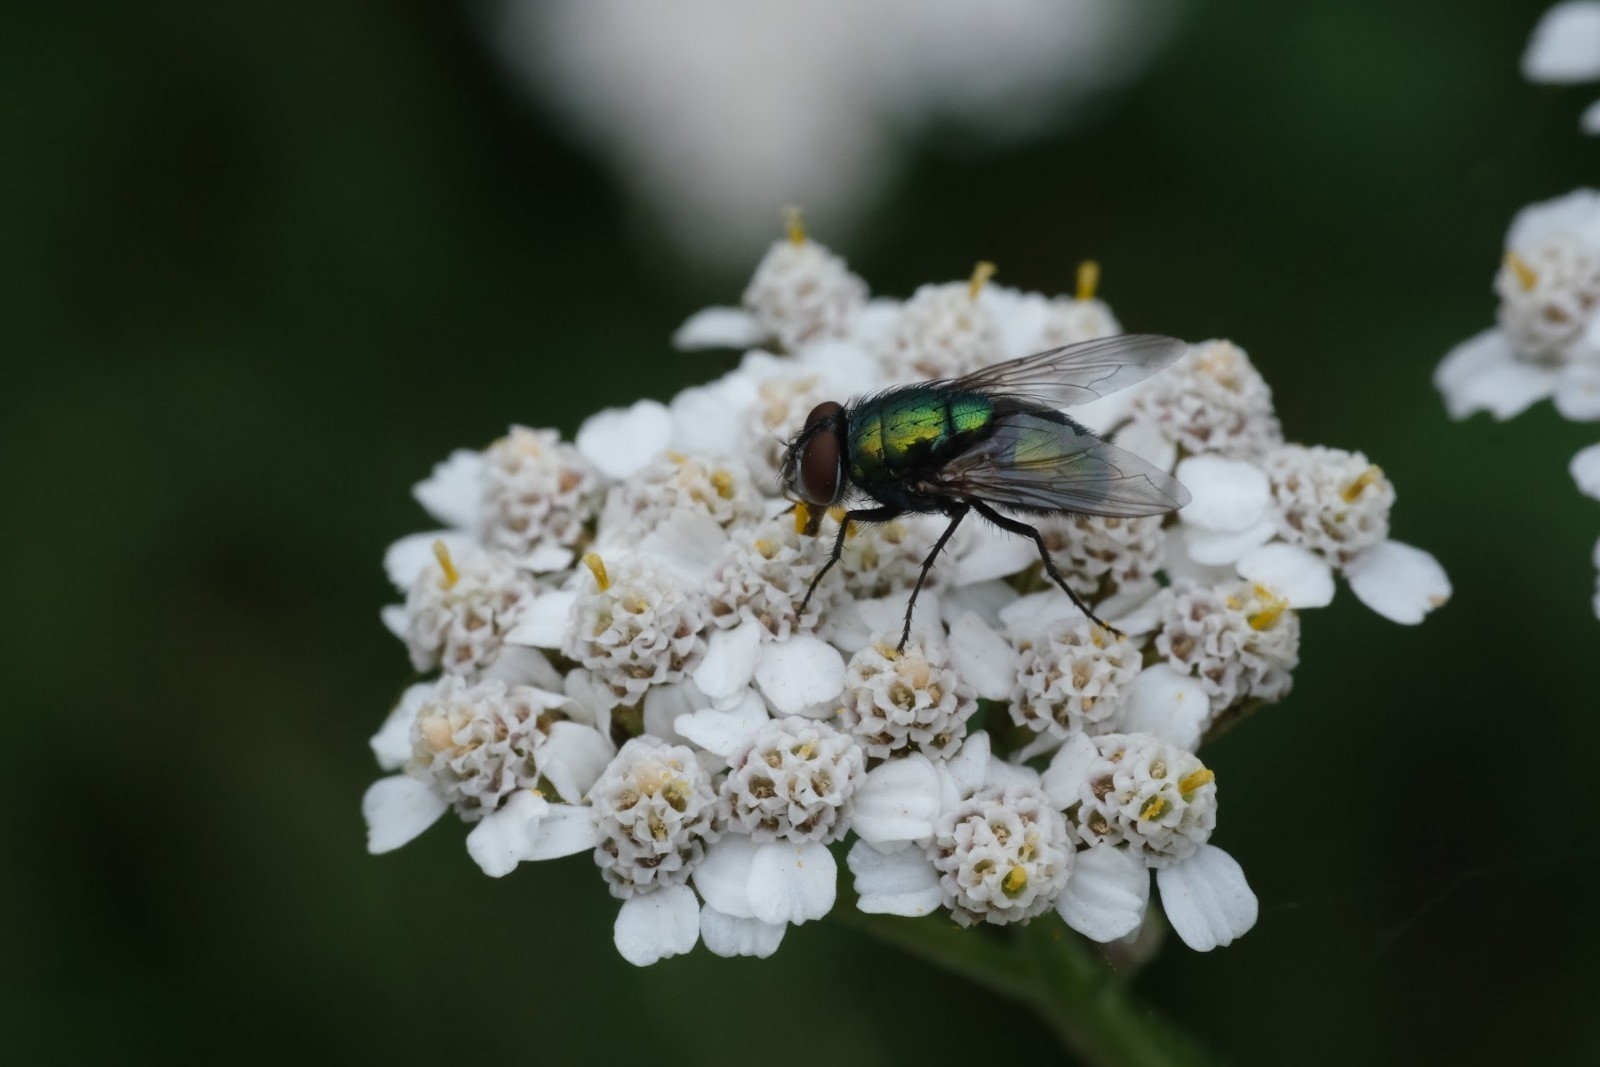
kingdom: Plantae
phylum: Tracheophyta
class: Magnoliopsida
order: Asterales
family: Asteraceae
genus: Achillea
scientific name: Achillea millefolium
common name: Yarrow
